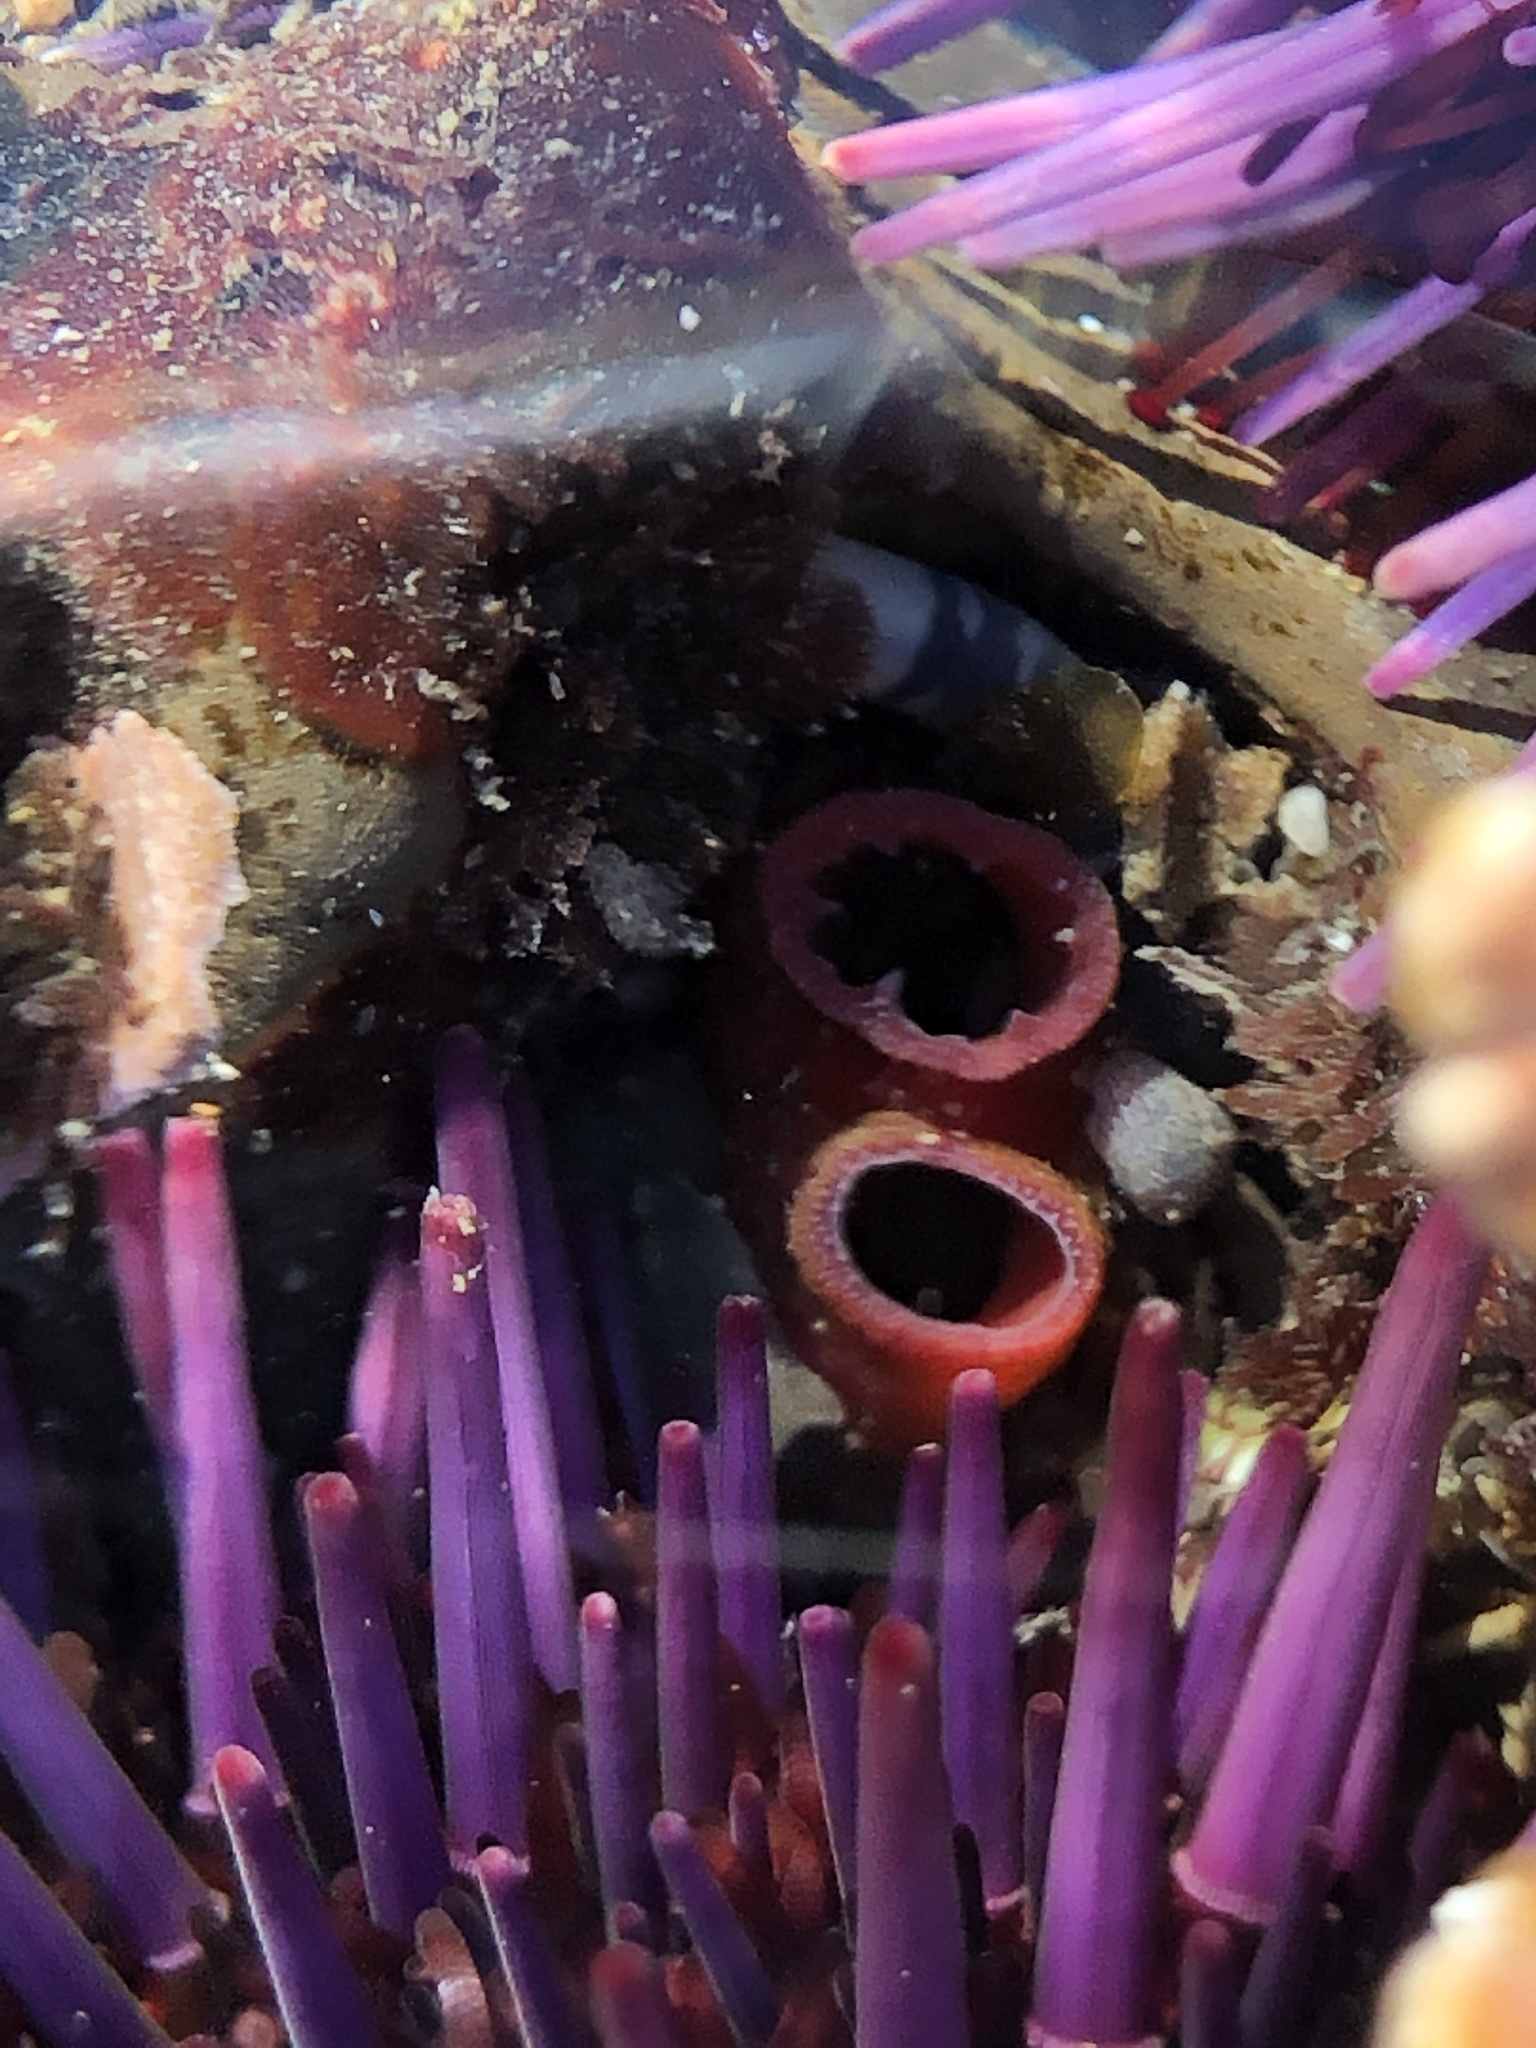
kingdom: Animalia
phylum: Mollusca
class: Bivalvia
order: Adapedonta
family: Hiatellidae
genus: Hiatella
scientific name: Hiatella arctica
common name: Arctic hiatella
